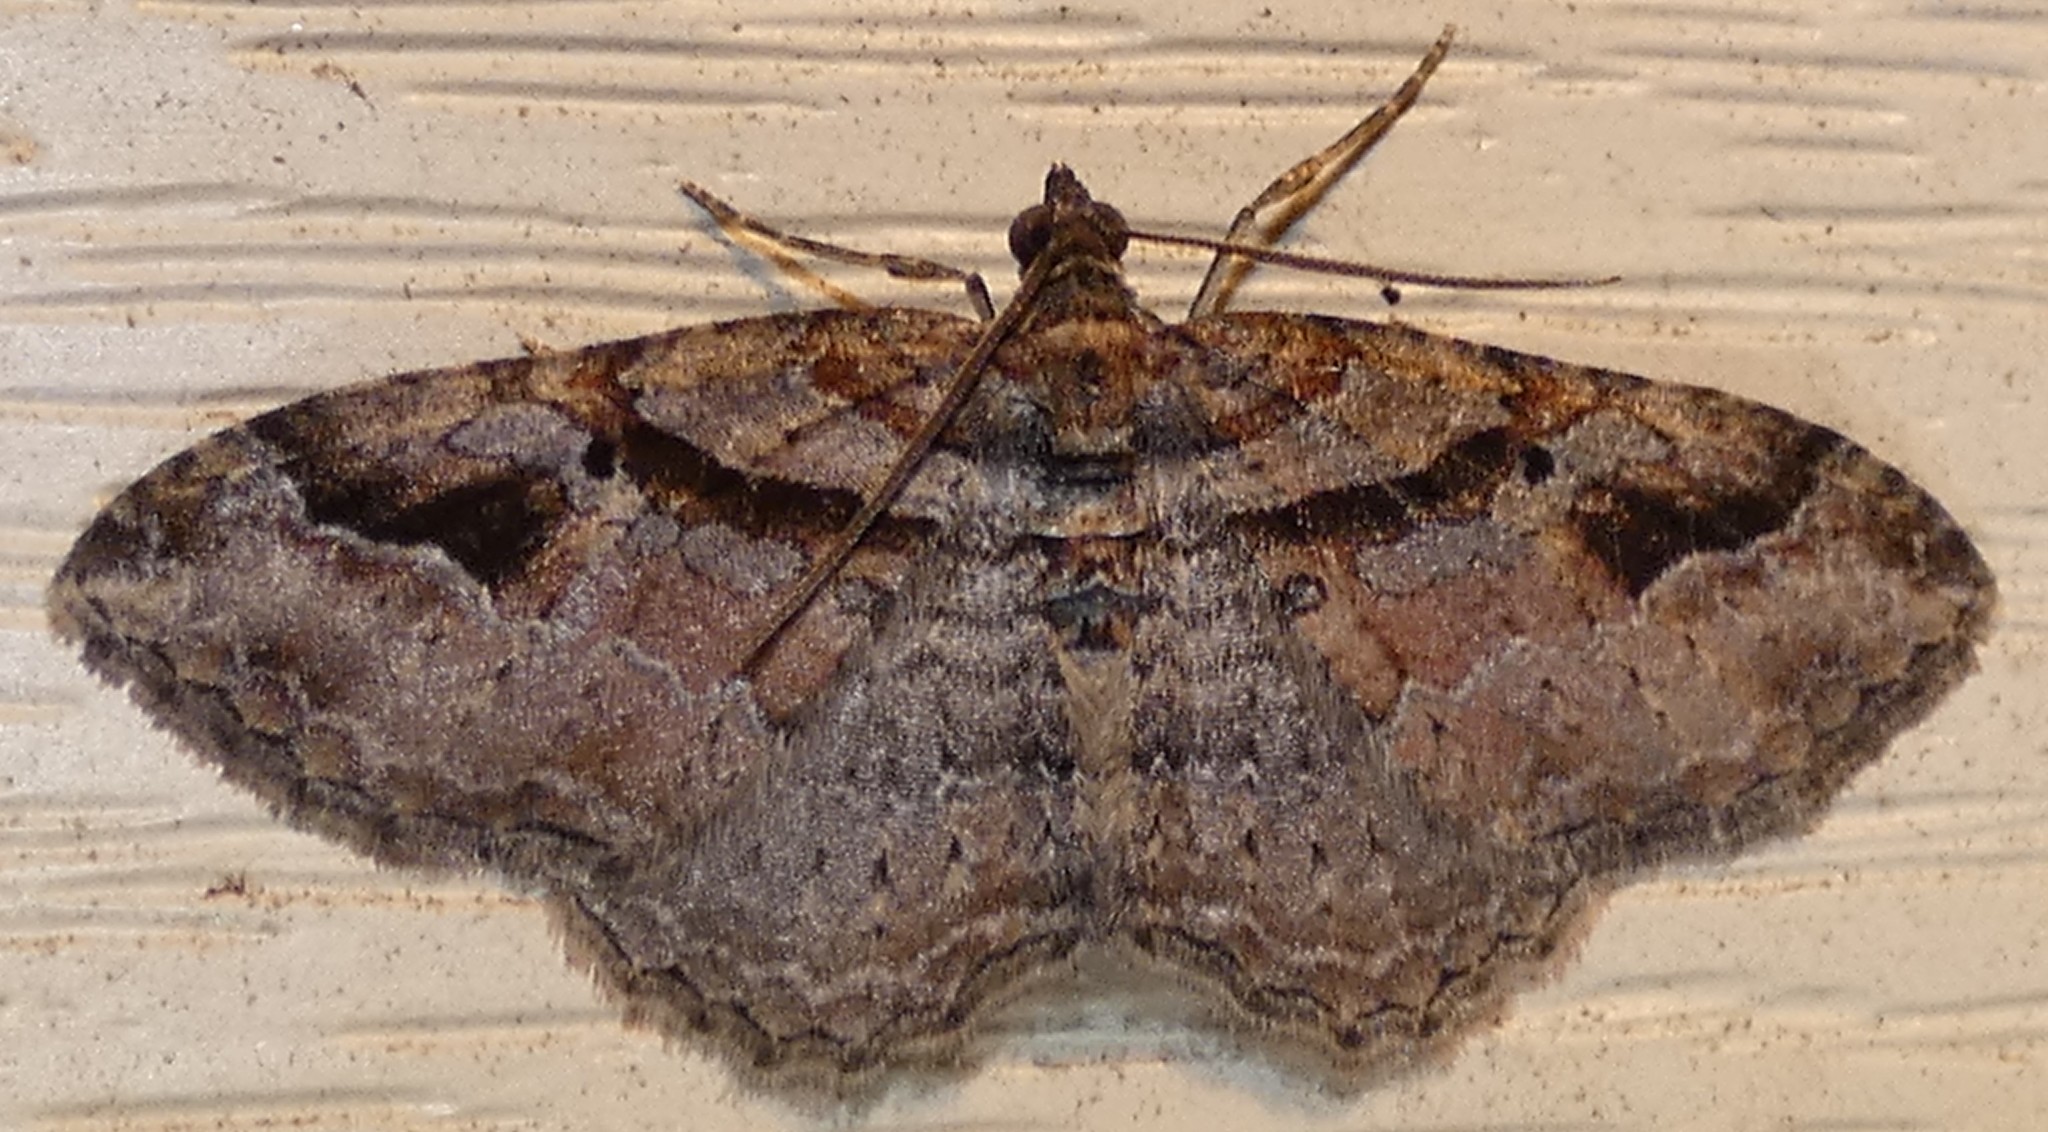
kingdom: Animalia
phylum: Arthropoda
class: Insecta
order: Lepidoptera
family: Geometridae
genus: Costaconvexa
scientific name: Costaconvexa centrostrigaria
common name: Bent-line carpet
